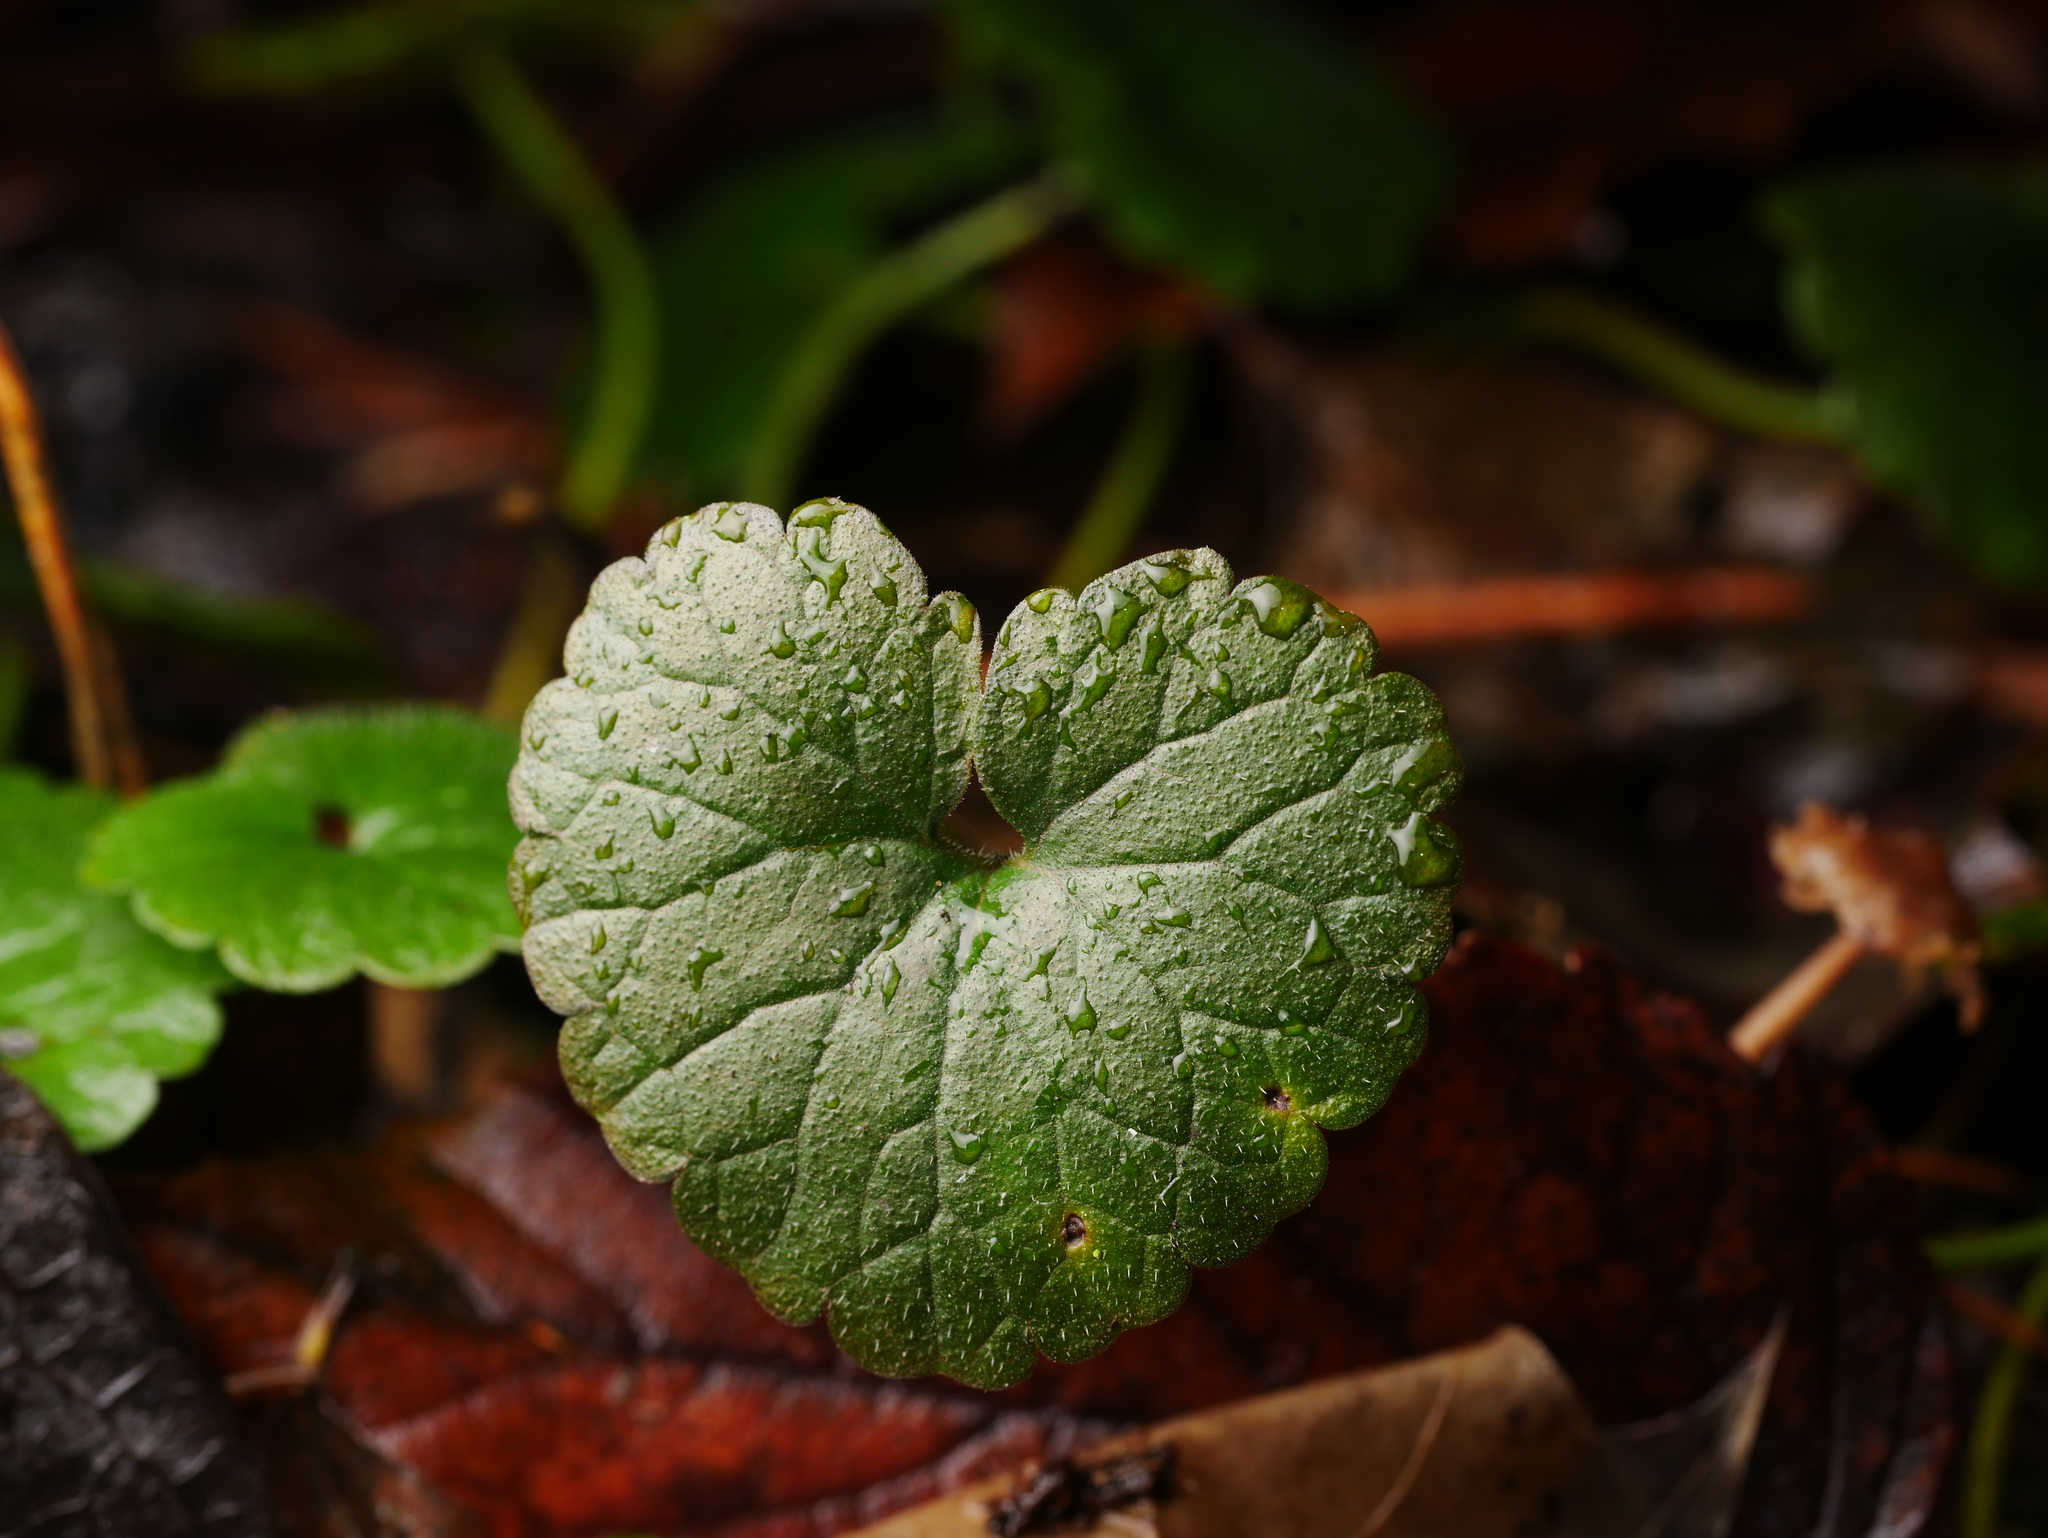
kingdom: Plantae
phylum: Tracheophyta
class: Magnoliopsida
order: Lamiales
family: Lamiaceae
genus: Glechoma
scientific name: Glechoma hederacea
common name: Ground ivy
